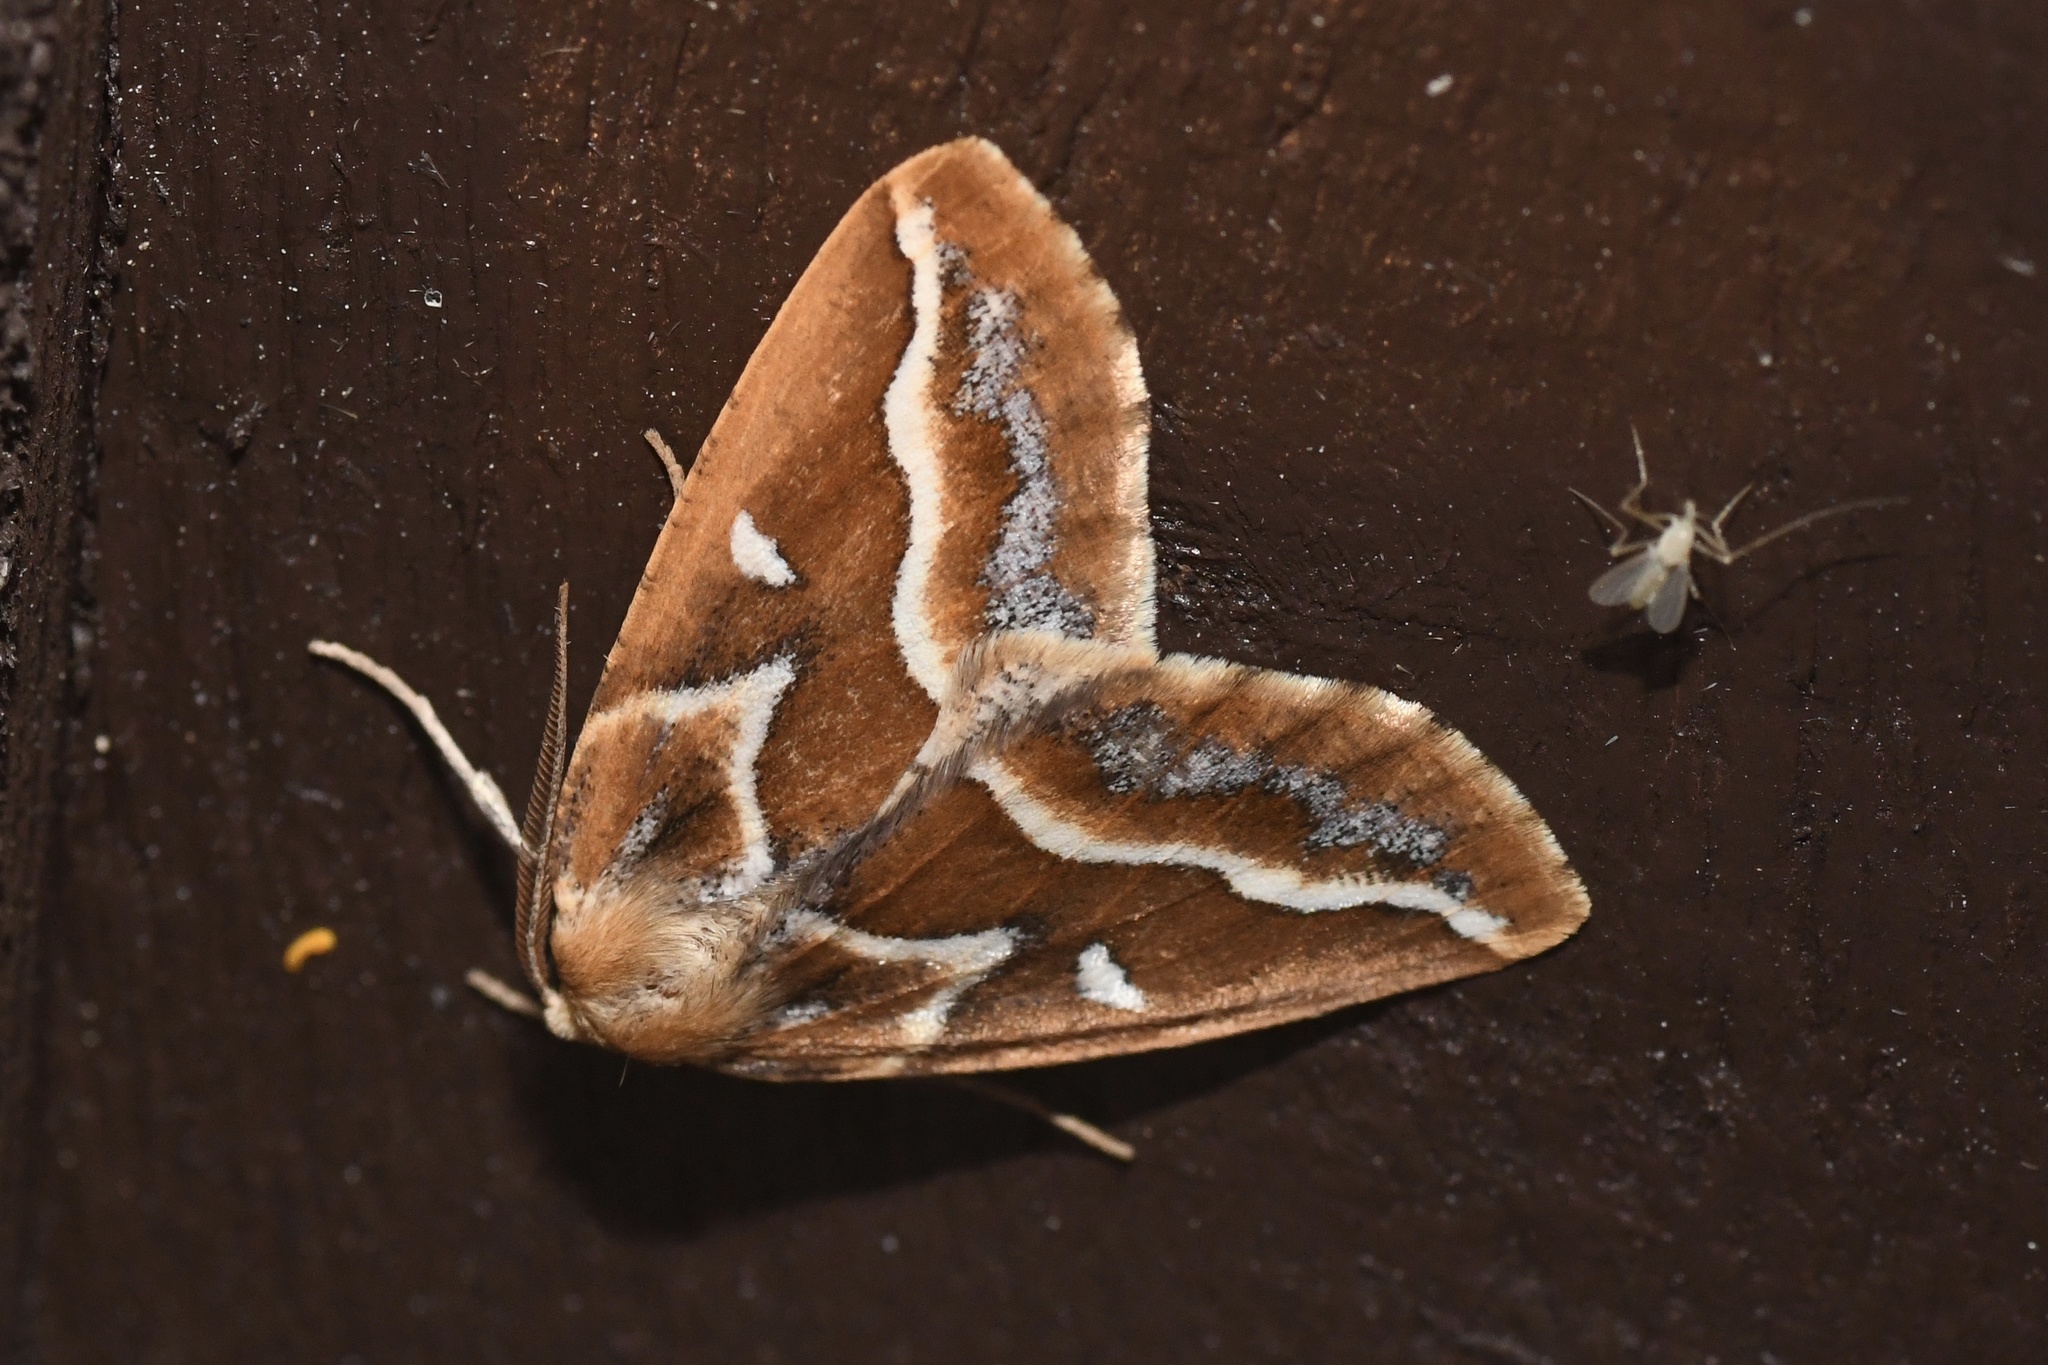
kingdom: Animalia
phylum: Arthropoda
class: Insecta
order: Lepidoptera
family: Geometridae
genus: Caripeta
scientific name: Caripeta angustiorata
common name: Brown pine looper
